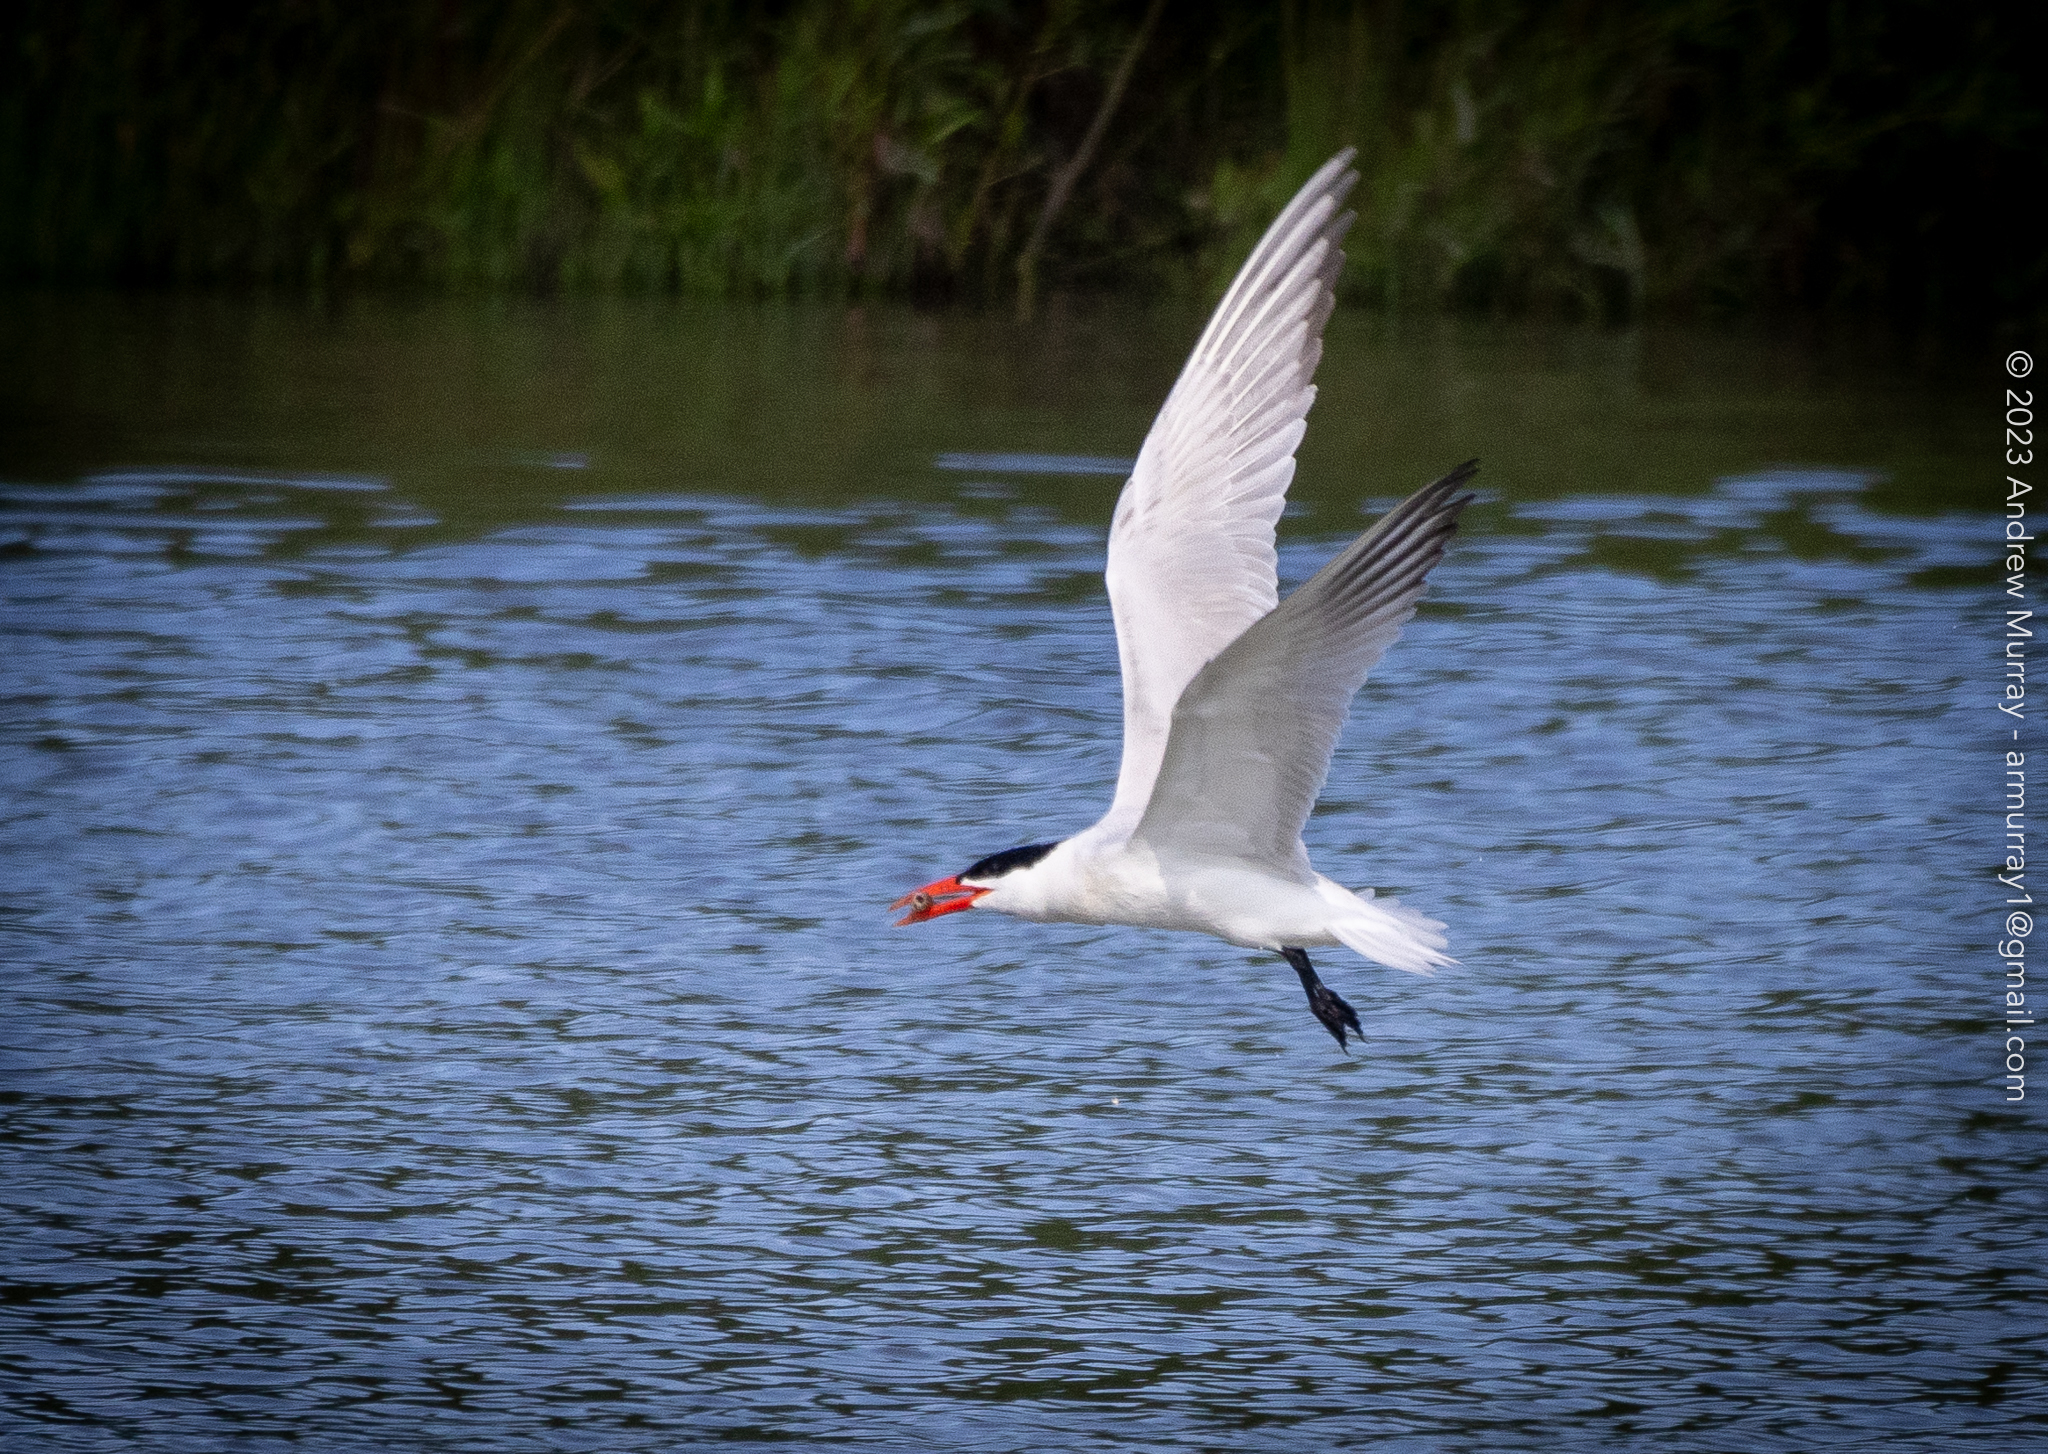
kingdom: Animalia
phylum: Chordata
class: Aves
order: Charadriiformes
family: Laridae
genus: Hydroprogne
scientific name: Hydroprogne caspia
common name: Caspian tern
